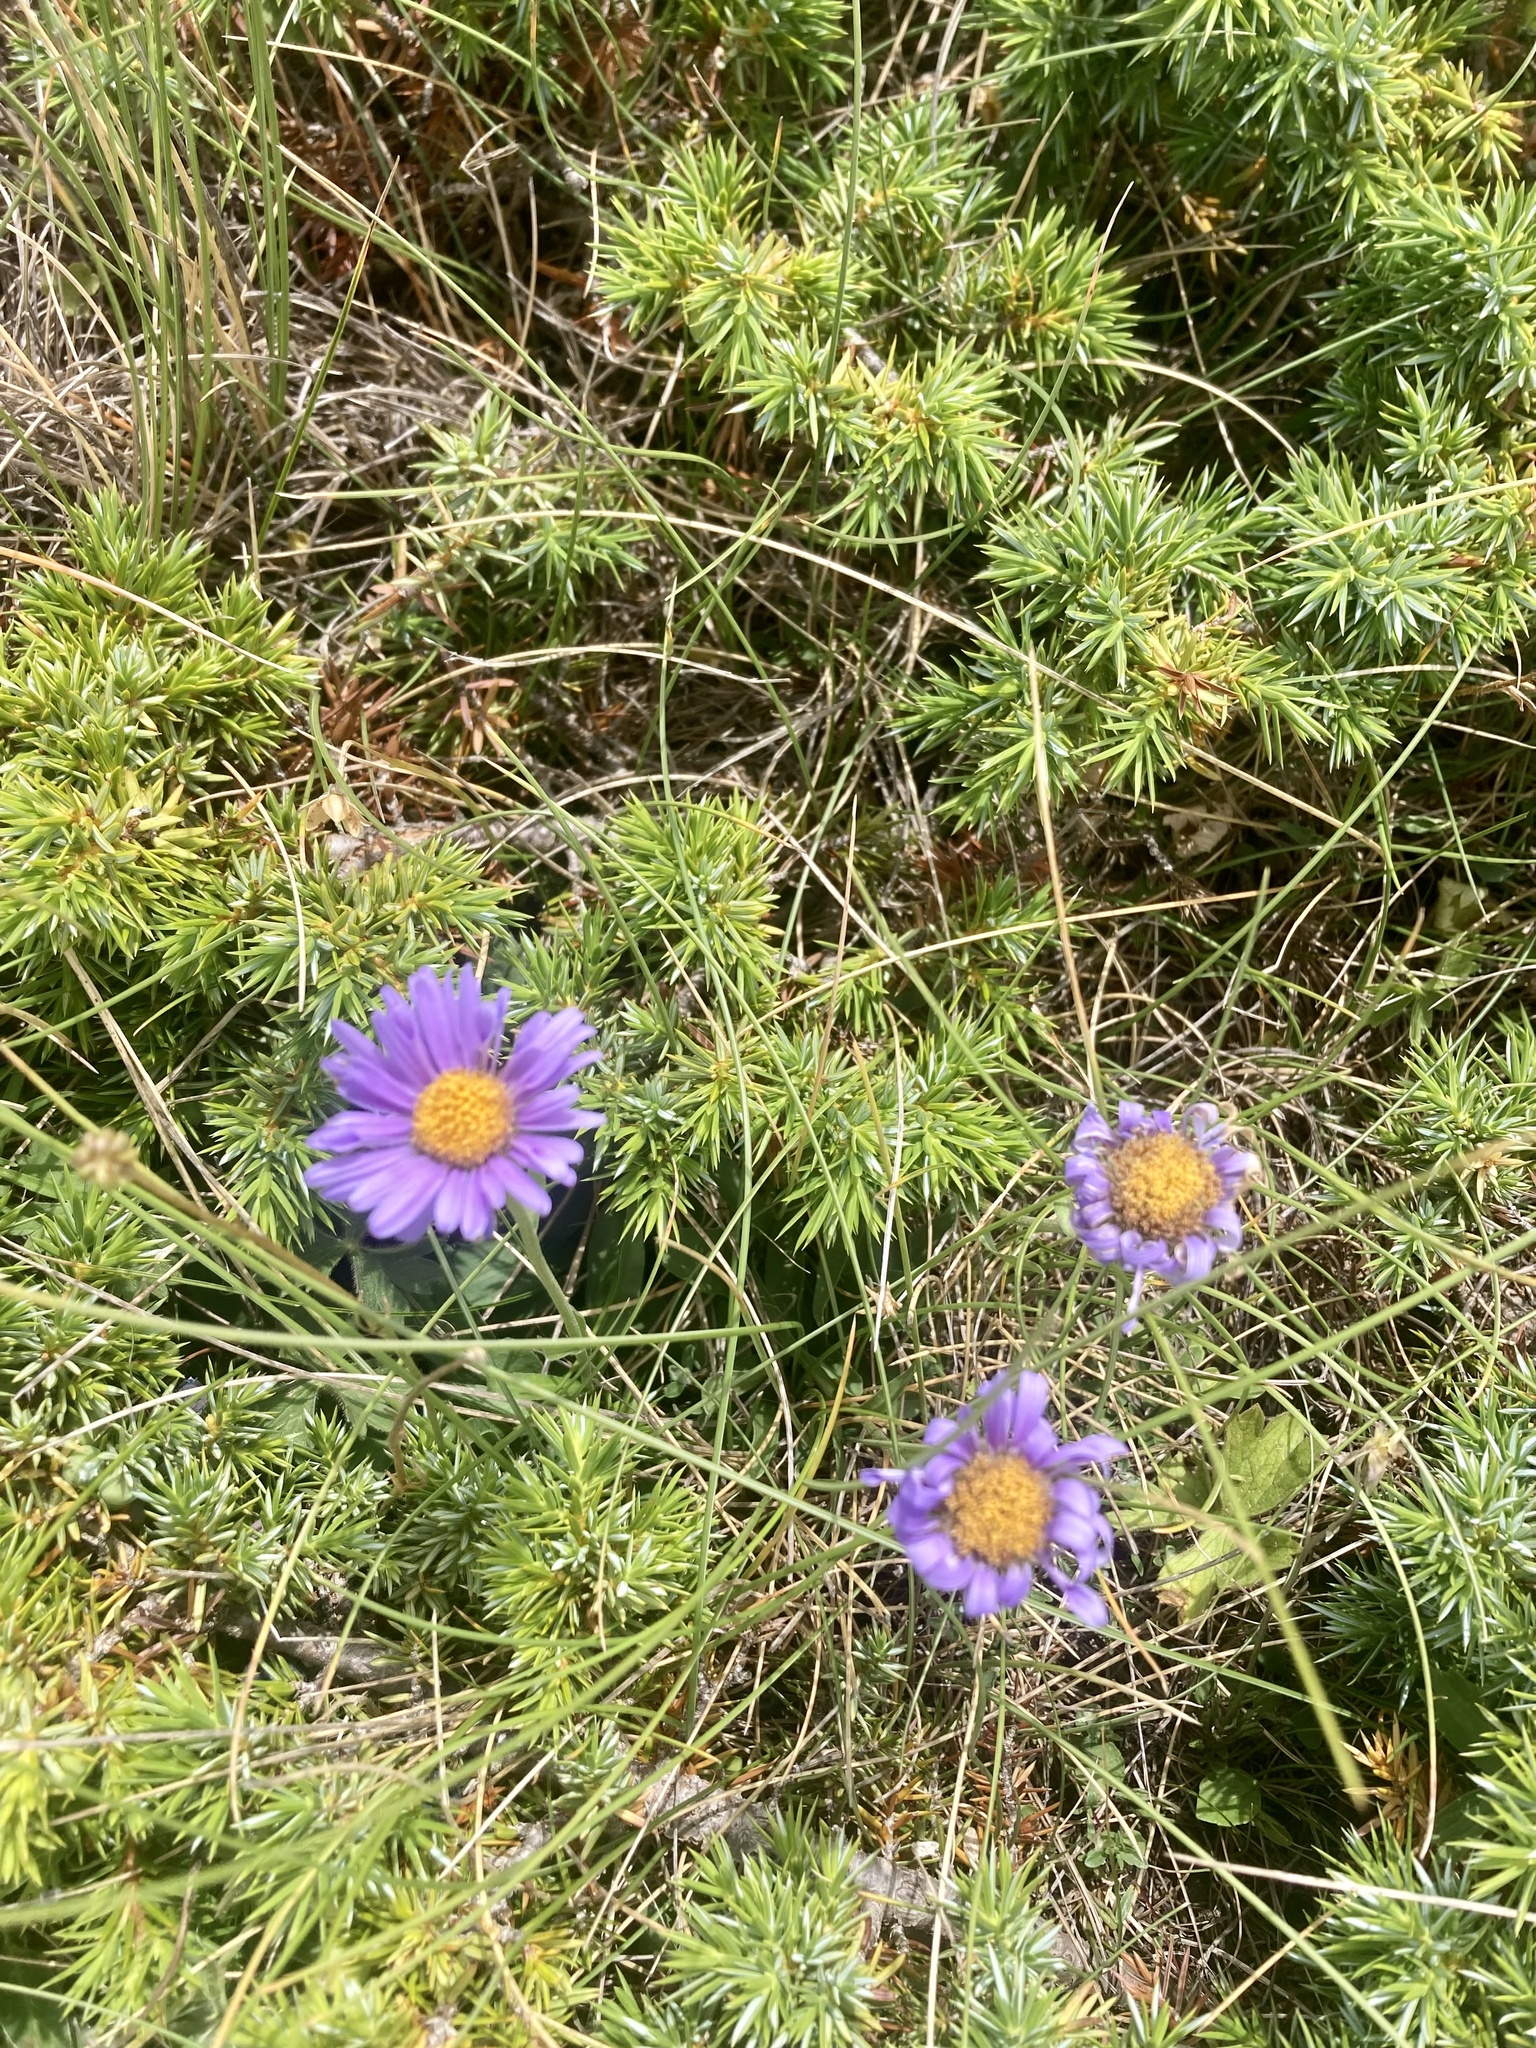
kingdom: Plantae
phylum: Tracheophyta
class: Magnoliopsida
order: Asterales
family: Asteraceae
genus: Aster
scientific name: Aster alpinus
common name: Alpine aster
